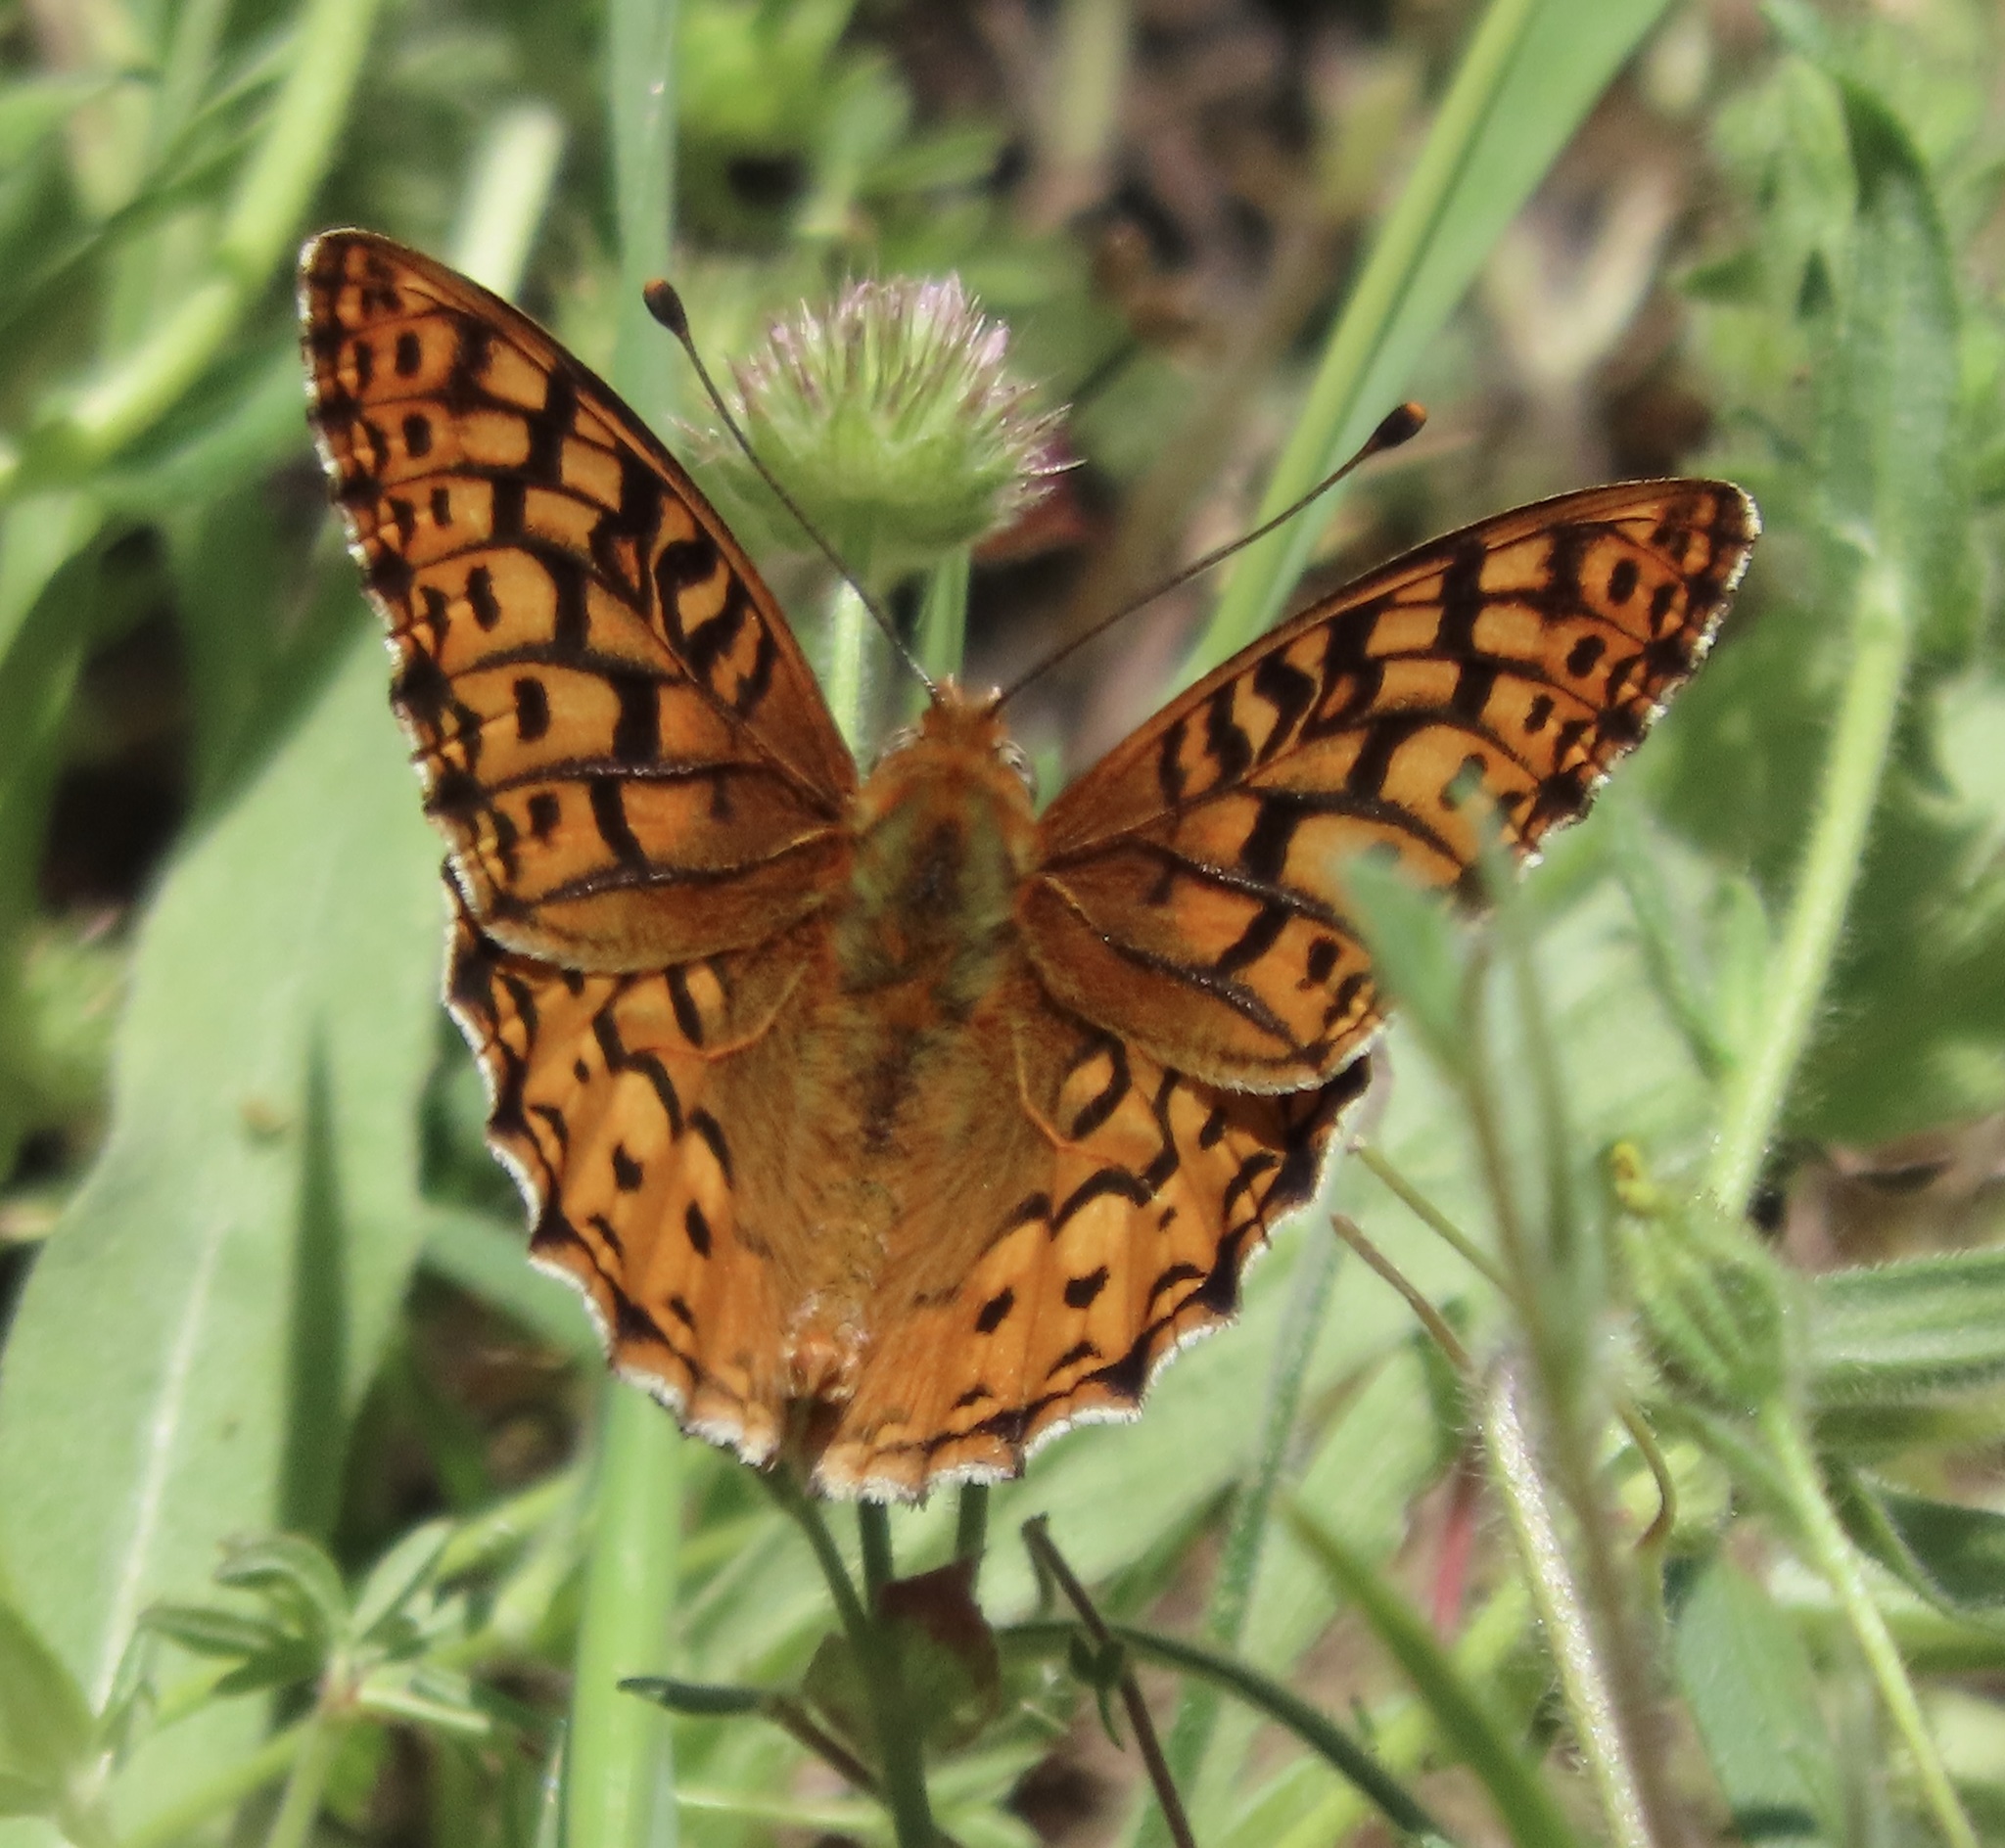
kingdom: Animalia
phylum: Arthropoda
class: Insecta
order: Lepidoptera
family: Nymphalidae
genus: Argynnis
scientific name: Argynnis coronis
